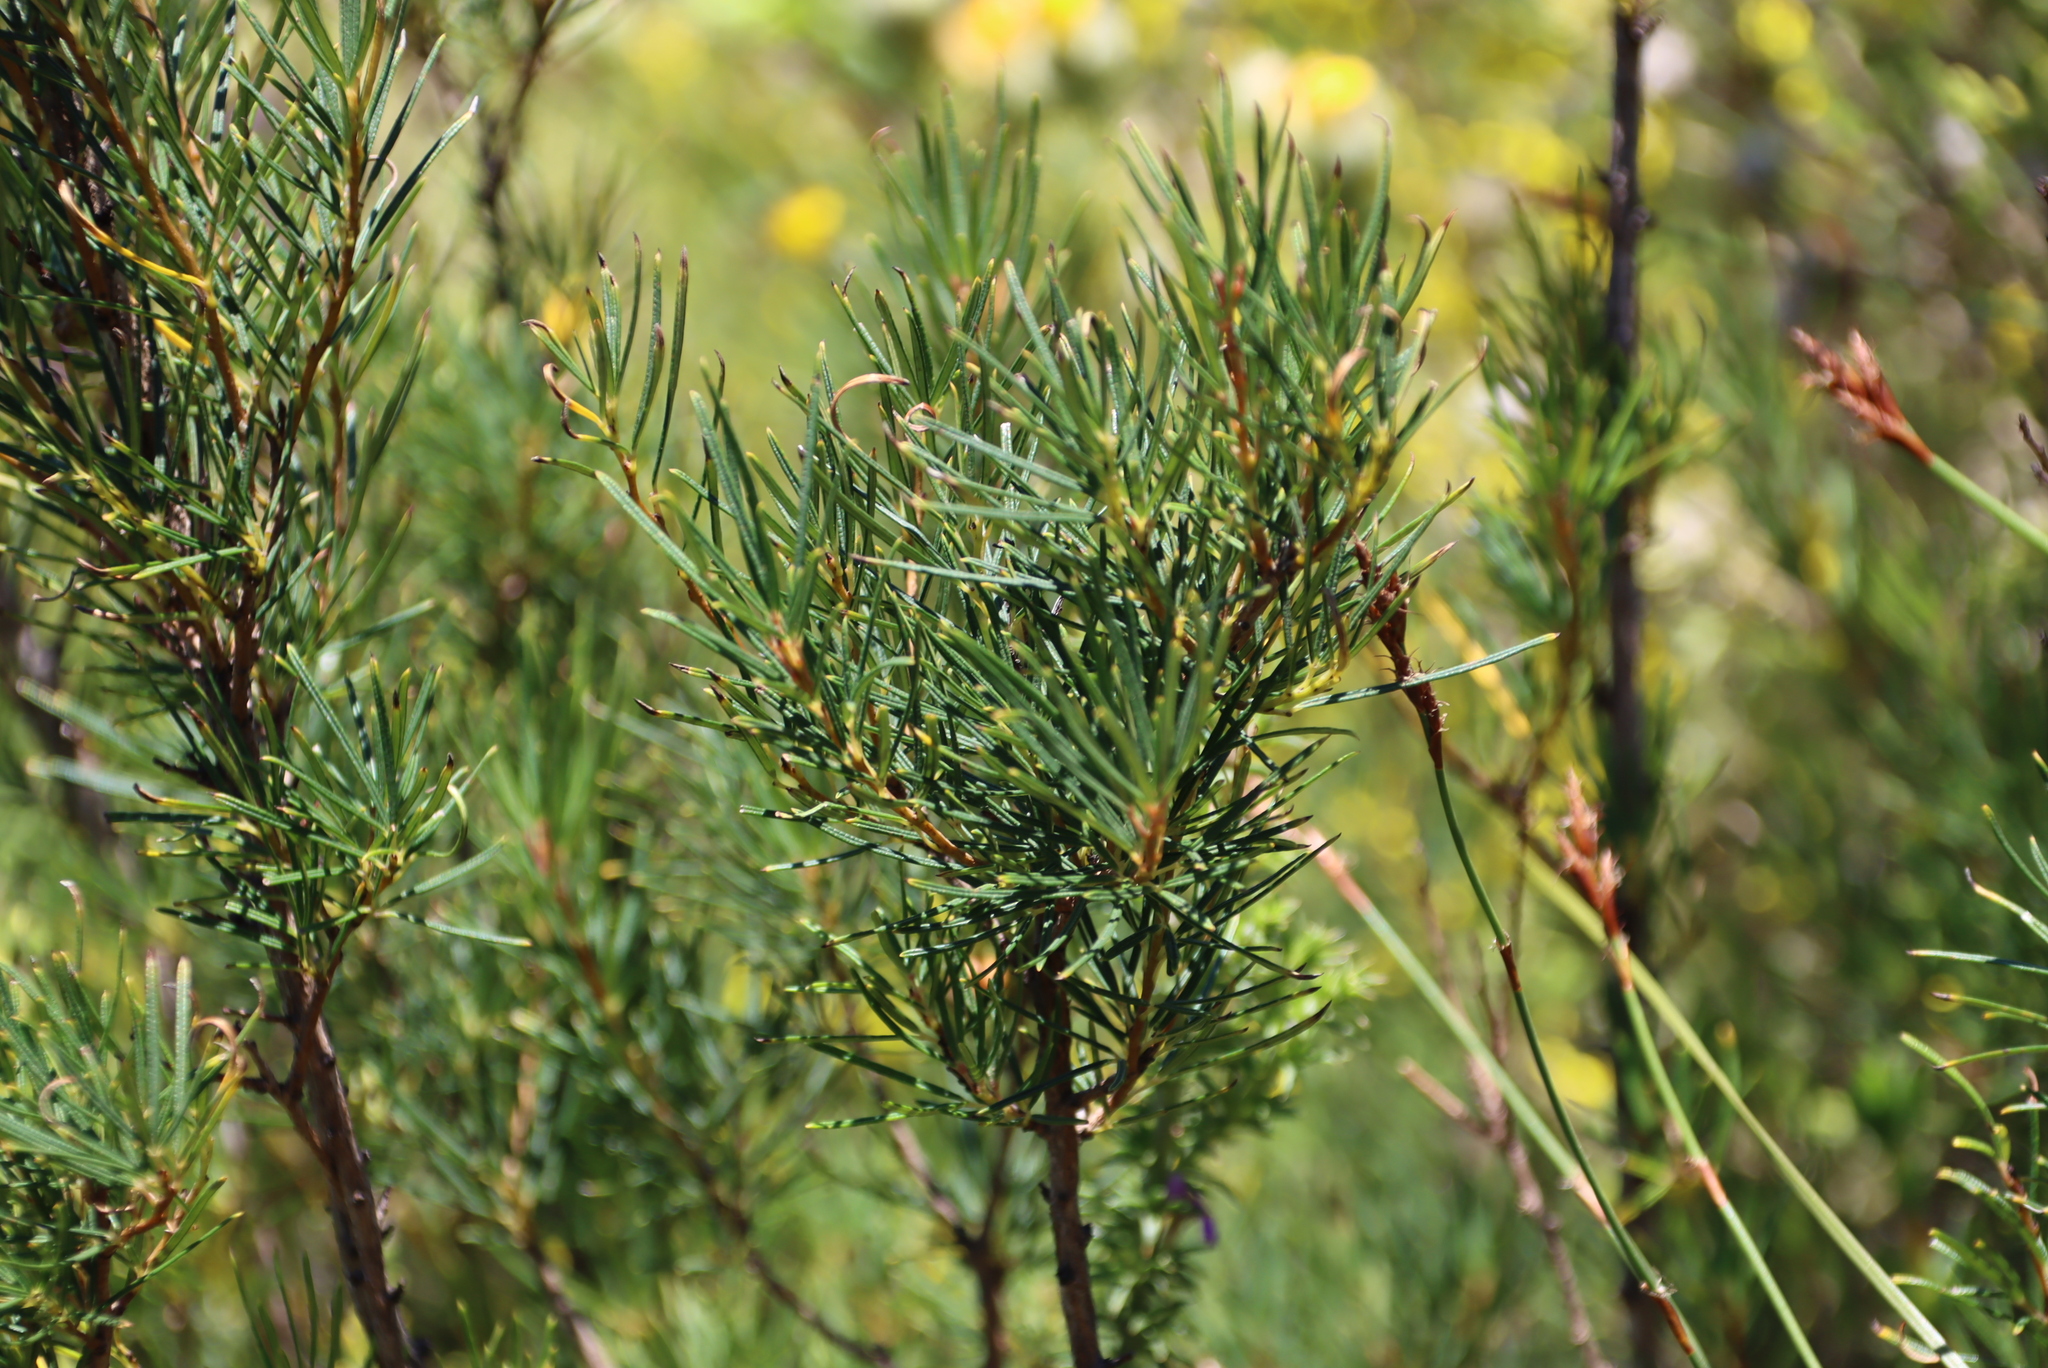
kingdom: Plantae
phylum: Tracheophyta
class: Magnoliopsida
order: Sapindales
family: Anacardiaceae
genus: Searsia
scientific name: Searsia rosmarinifolia
